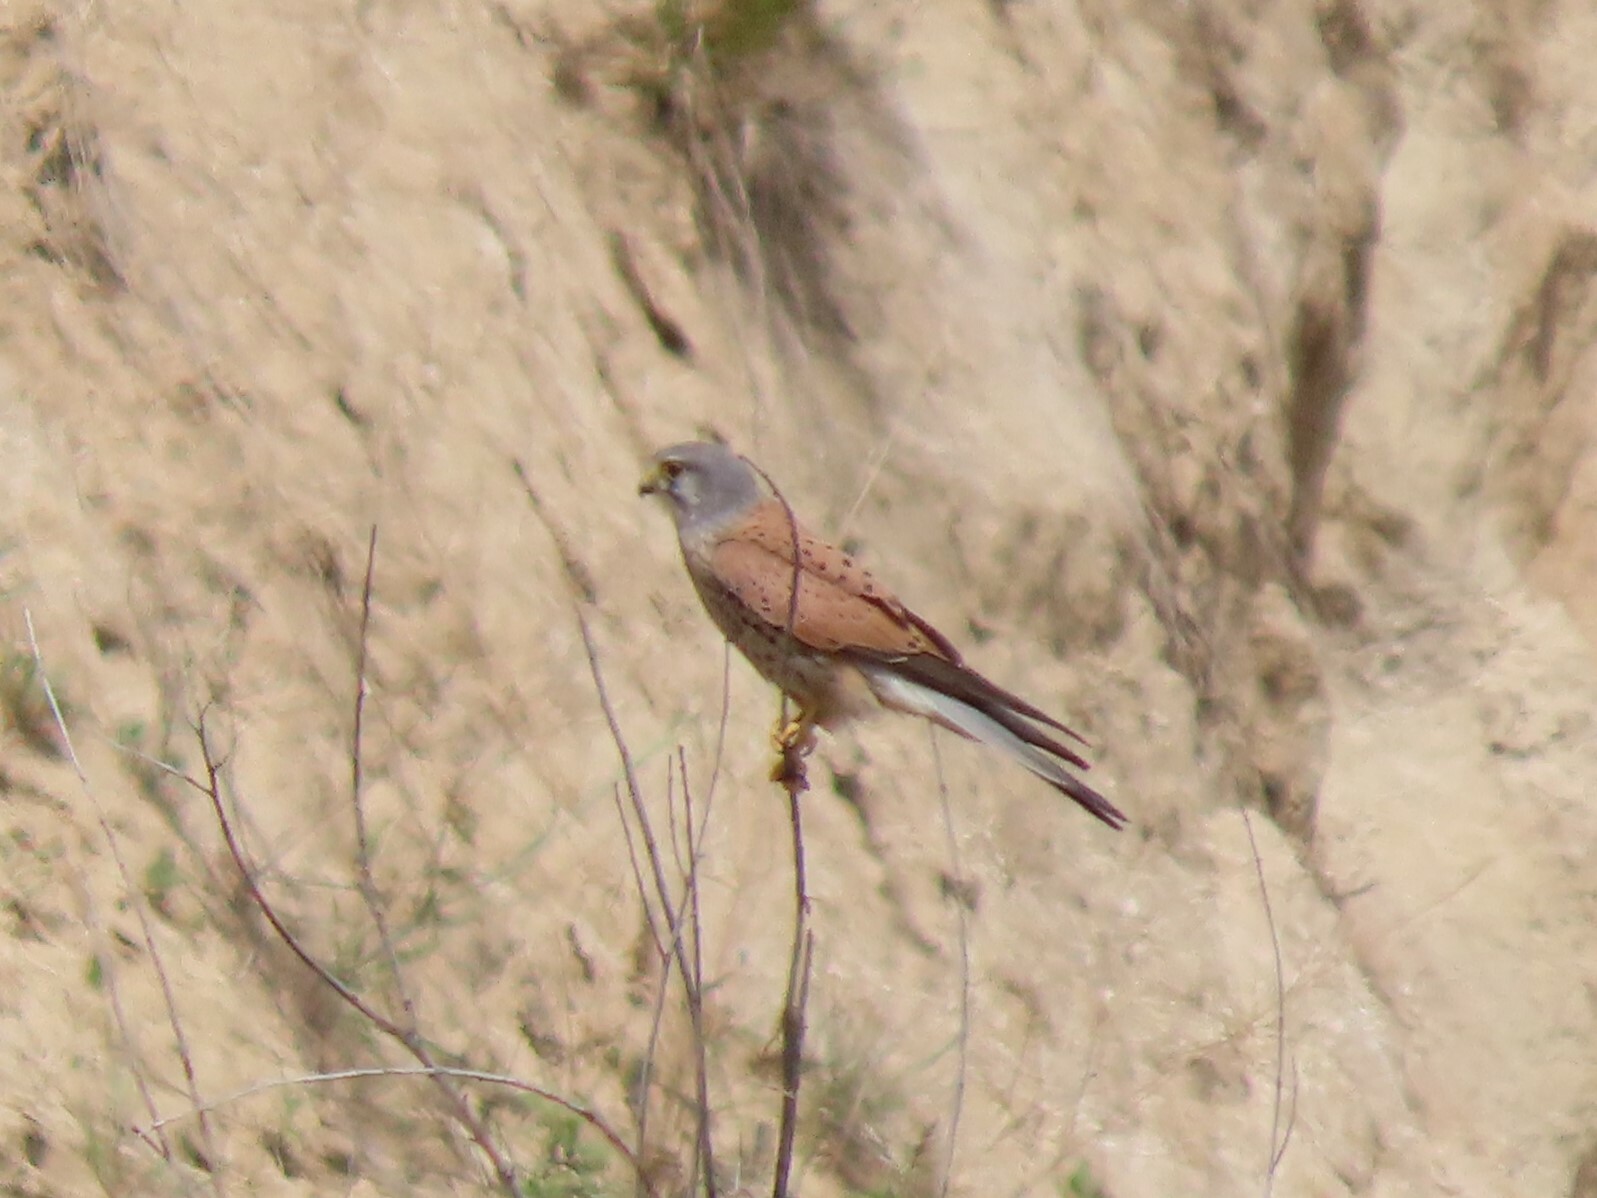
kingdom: Animalia
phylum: Chordata
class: Aves
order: Falconiformes
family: Falconidae
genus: Falco
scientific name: Falco tinnunculus
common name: Common kestrel
